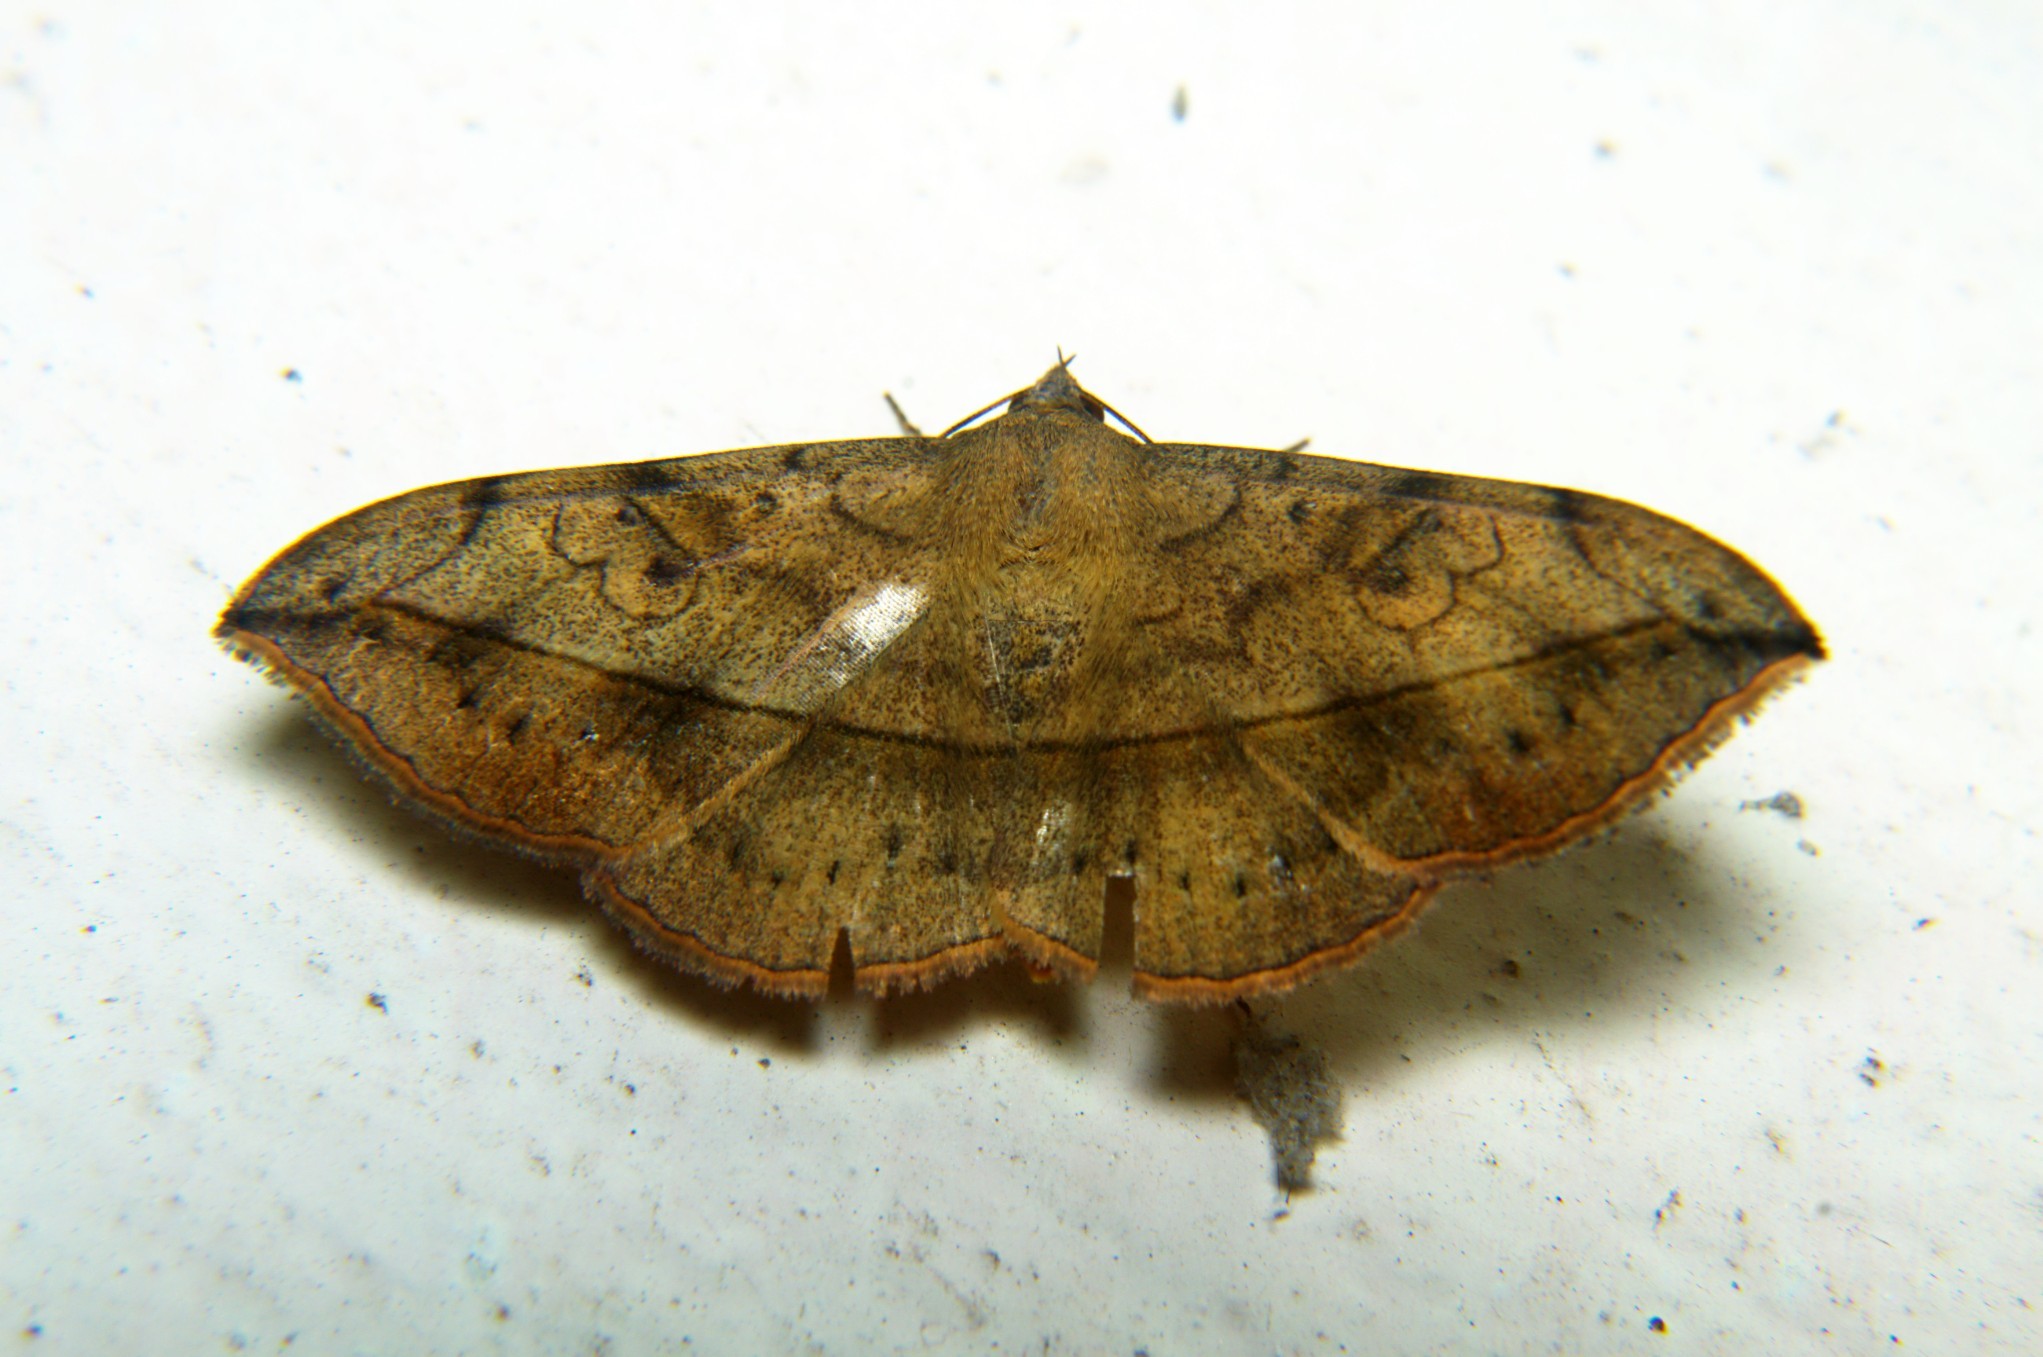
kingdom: Animalia
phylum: Arthropoda
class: Insecta
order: Lepidoptera
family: Erebidae
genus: Anticarsia
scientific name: Anticarsia irrorata
